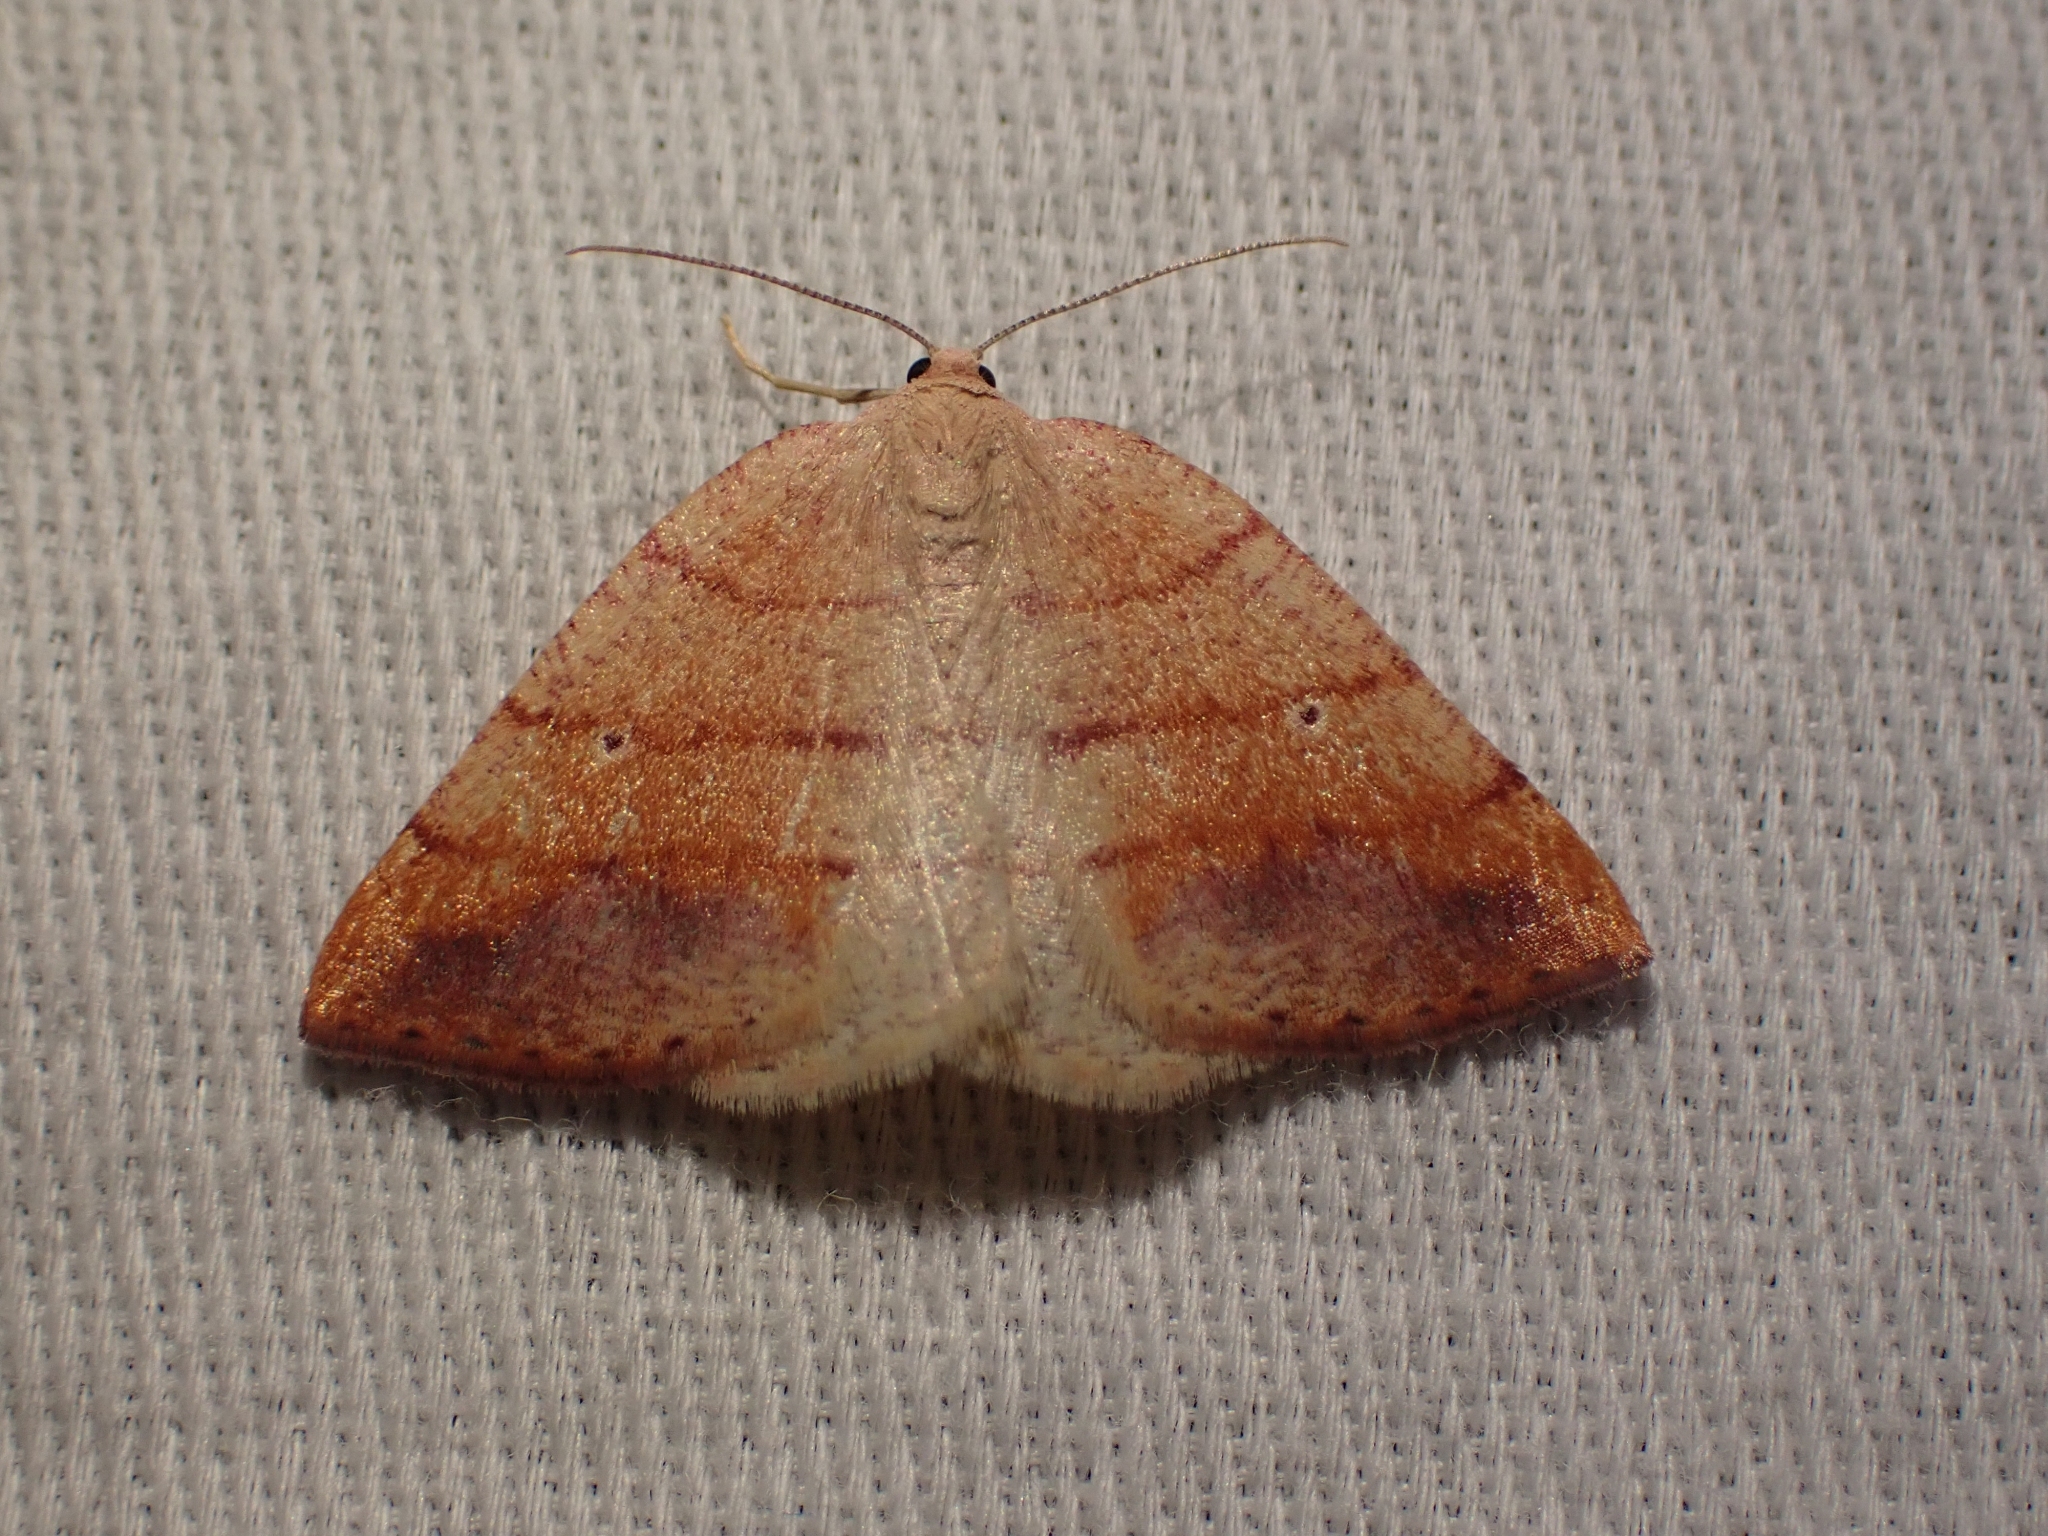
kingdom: Animalia
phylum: Arthropoda
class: Insecta
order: Lepidoptera
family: Geometridae
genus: Drepanulatrix
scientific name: Drepanulatrix carnearia
